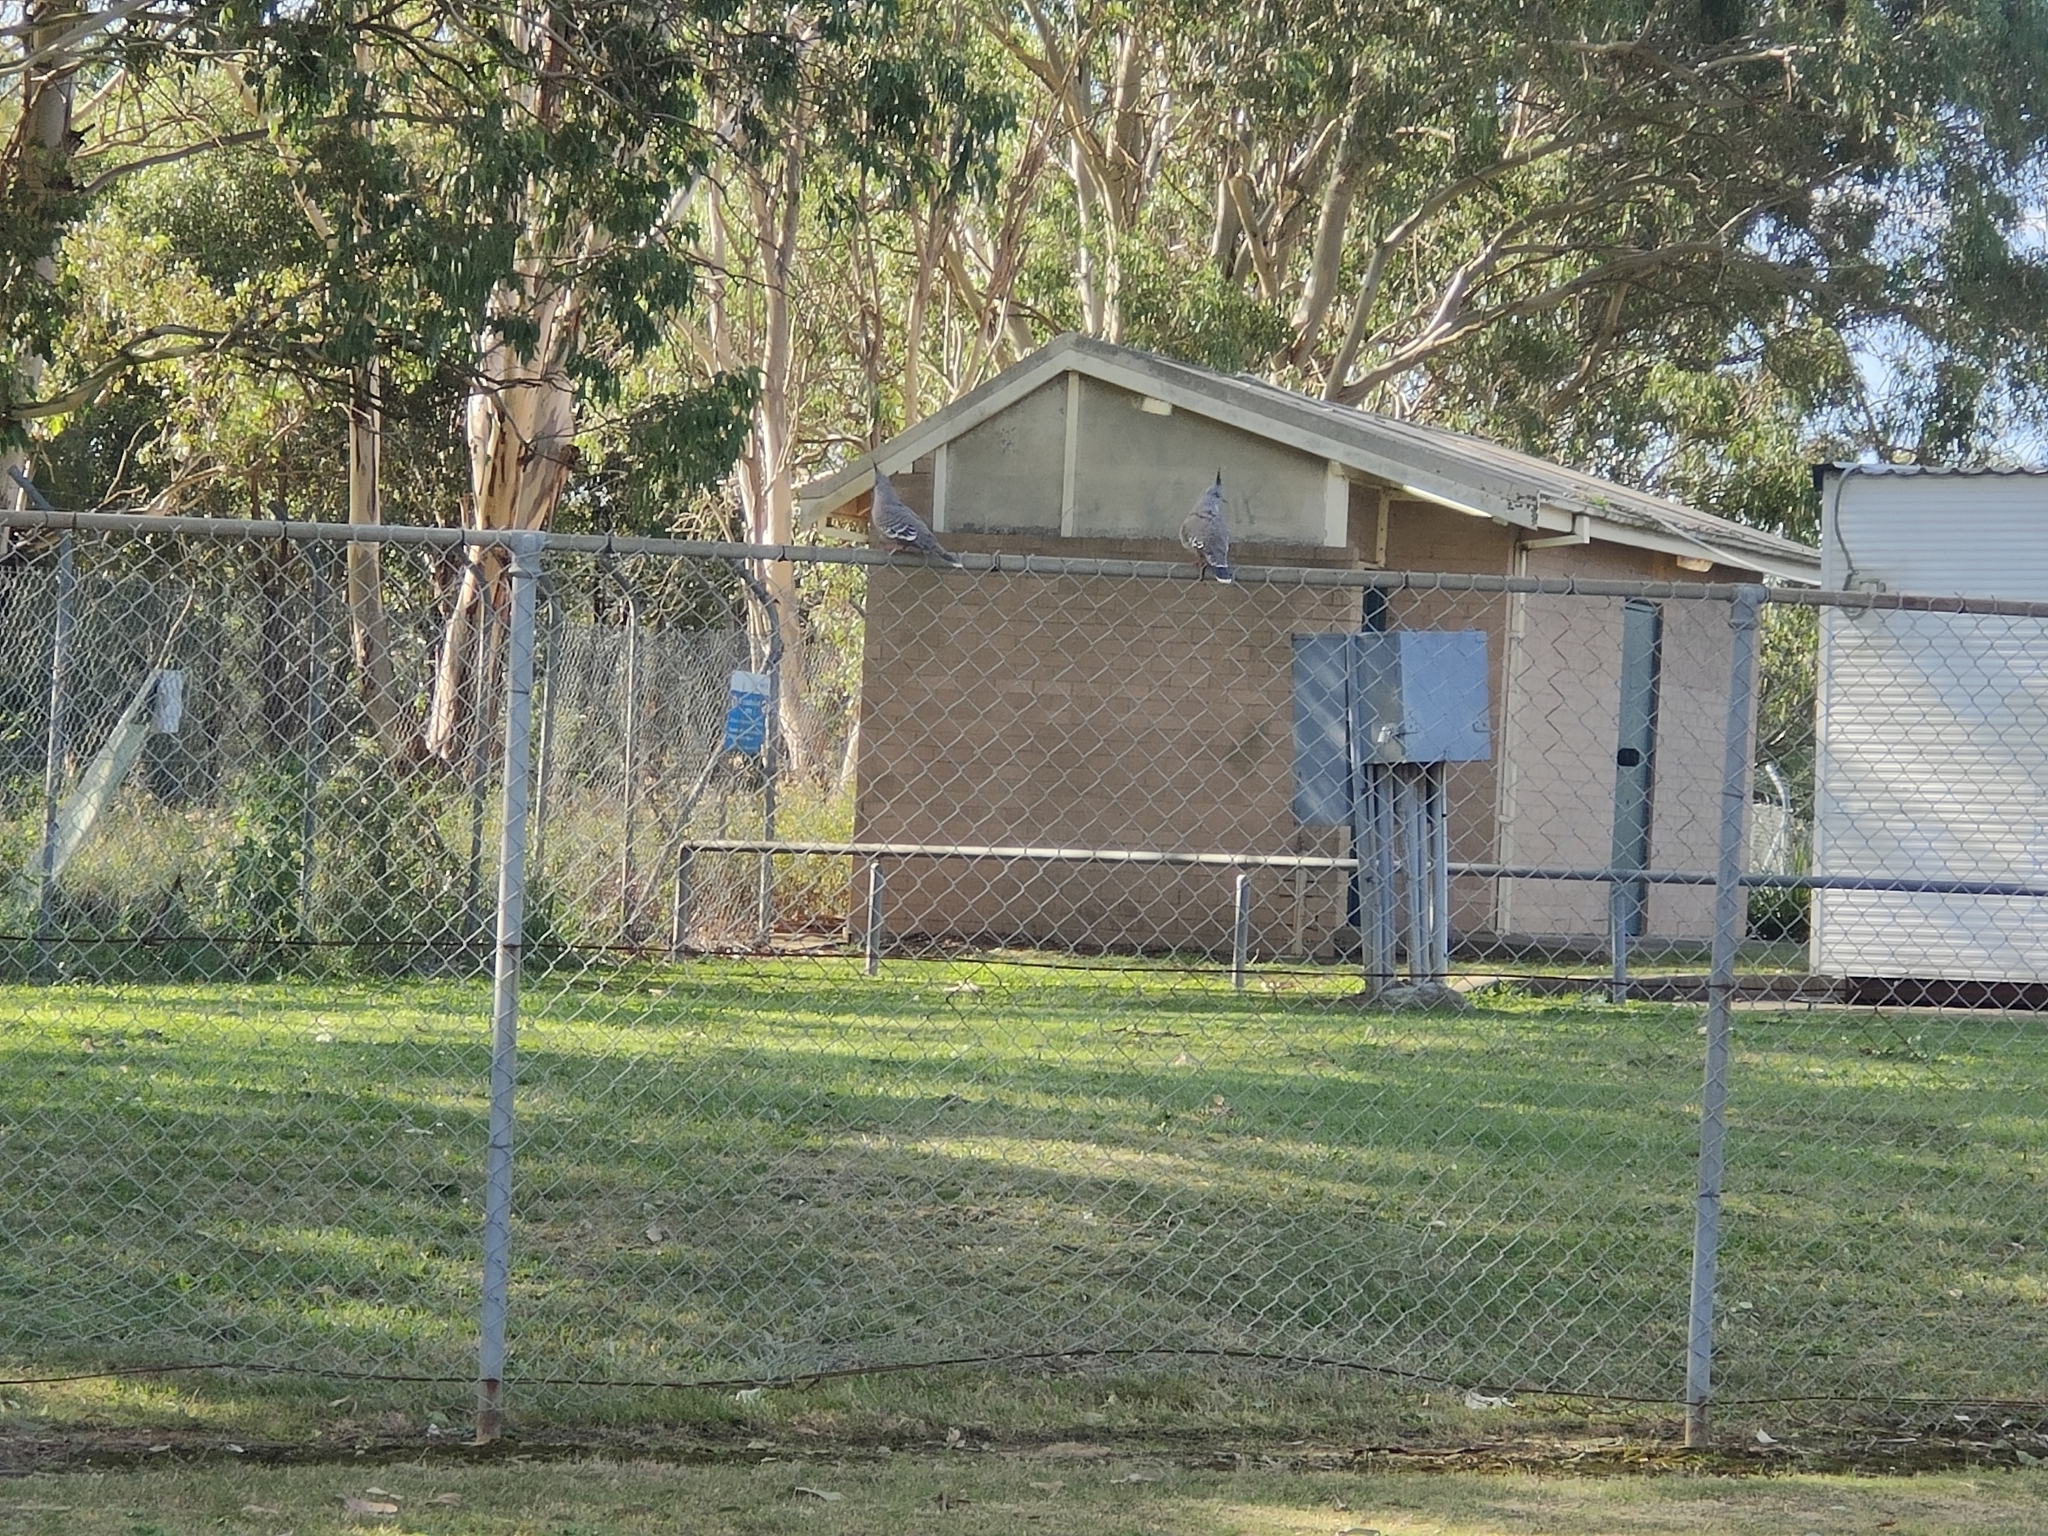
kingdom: Animalia
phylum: Chordata
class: Aves
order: Columbiformes
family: Columbidae
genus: Ocyphaps
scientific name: Ocyphaps lophotes
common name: Crested pigeon
